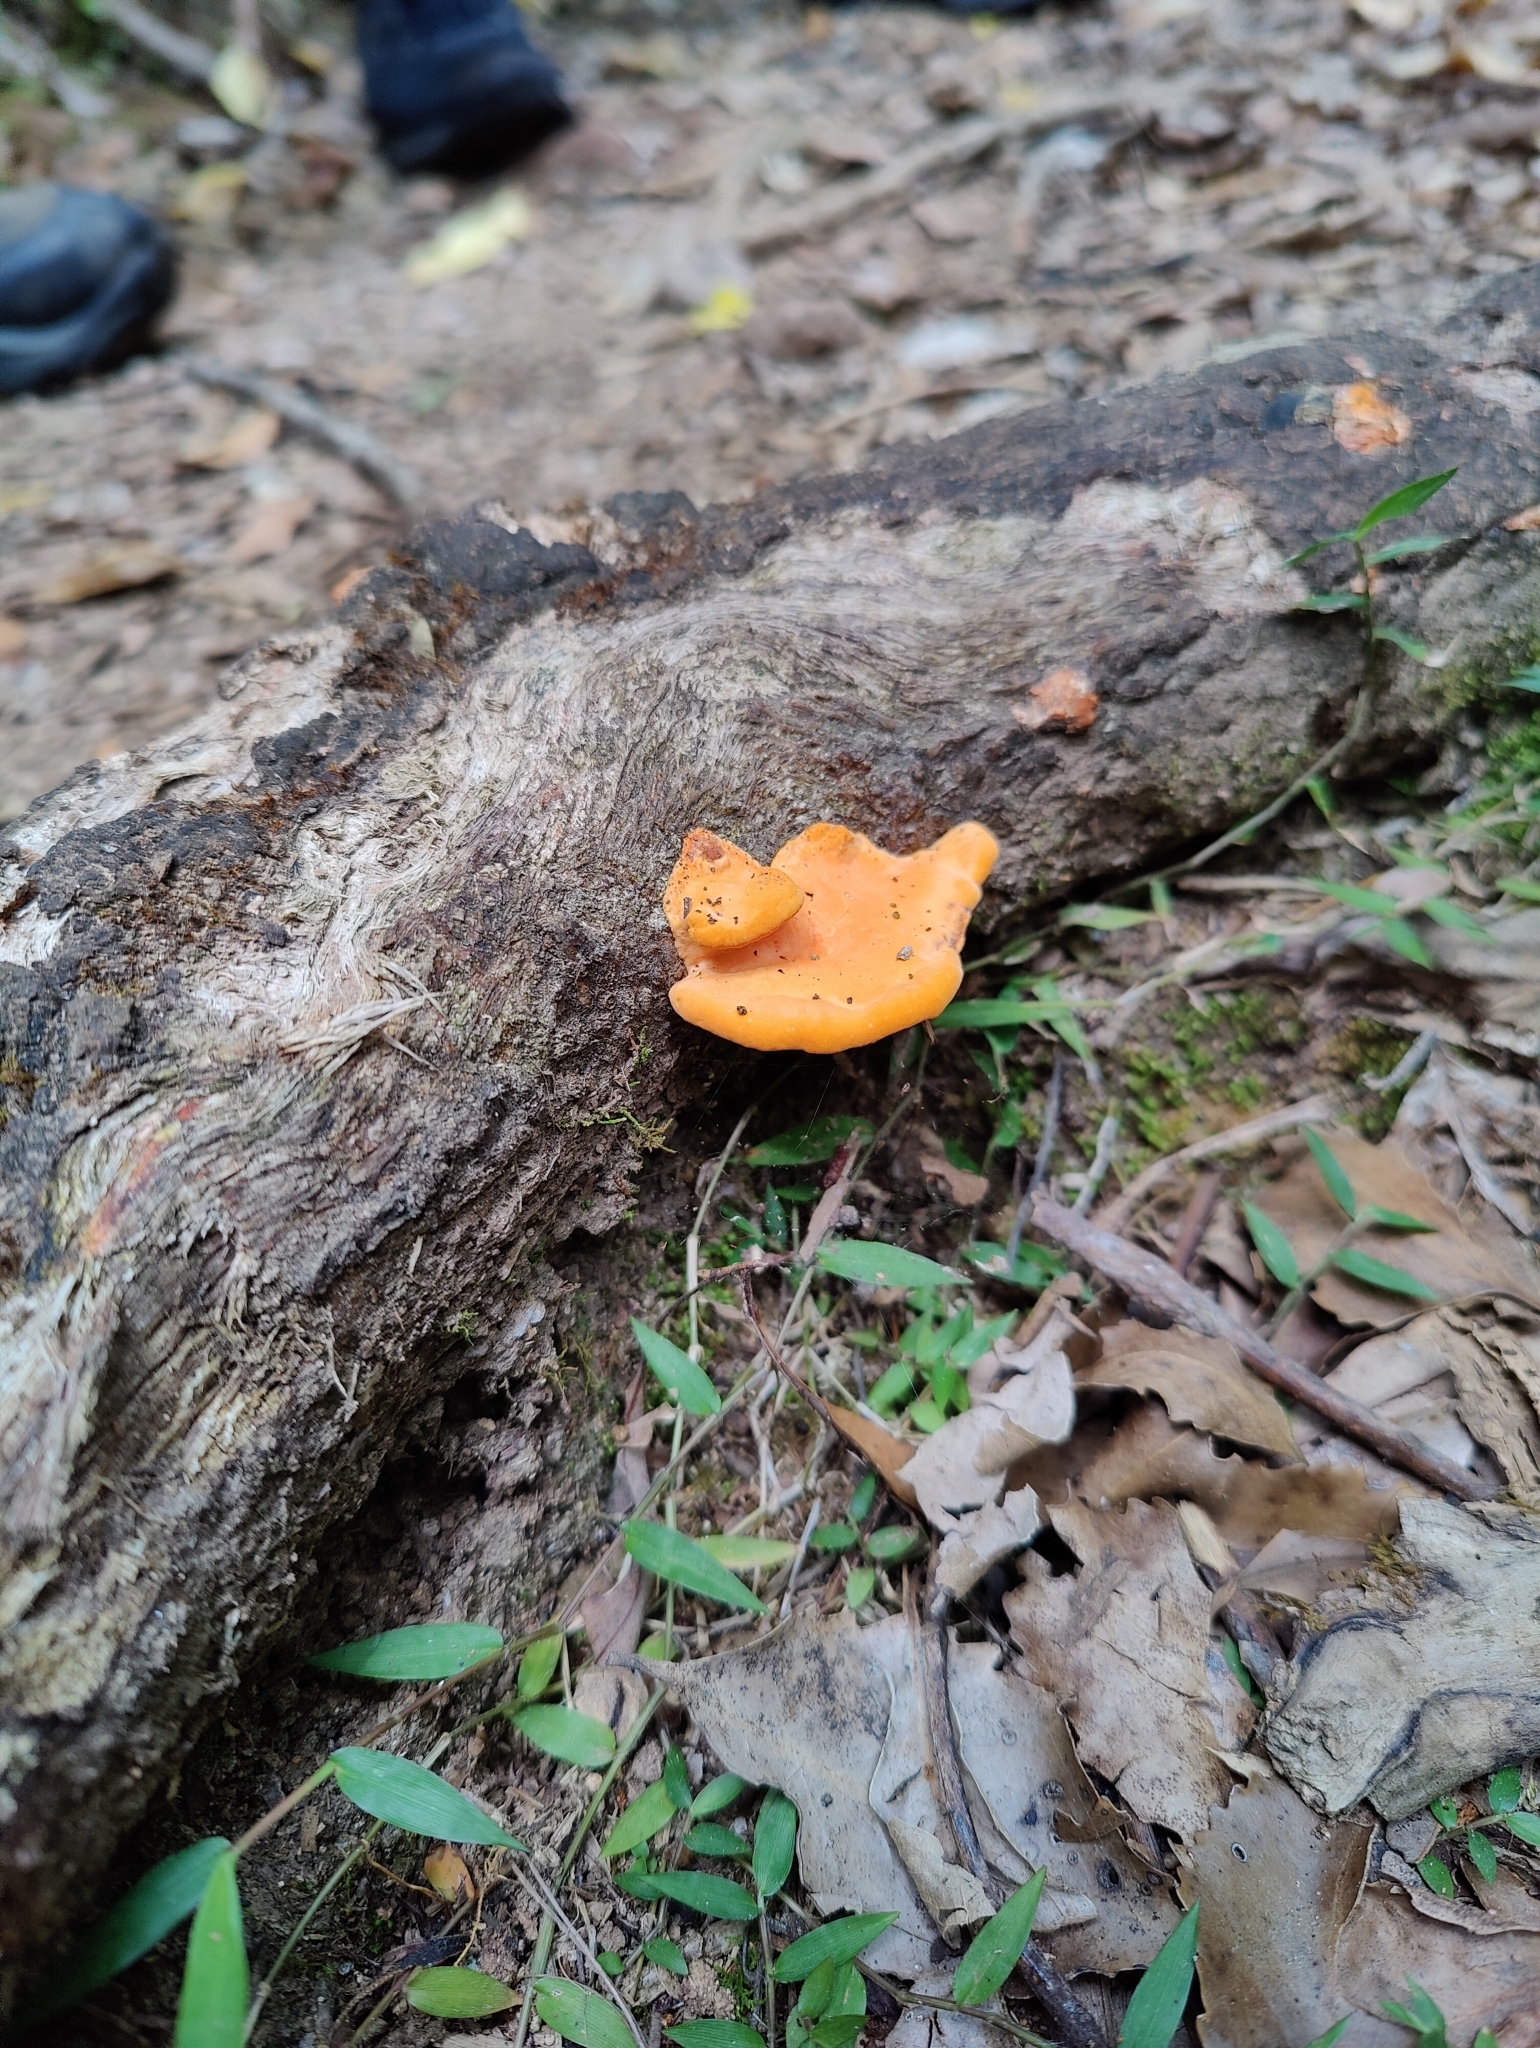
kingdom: Fungi
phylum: Basidiomycota
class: Agaricomycetes
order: Polyporales
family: Polyporaceae
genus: Trametes
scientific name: Trametes coccinea
